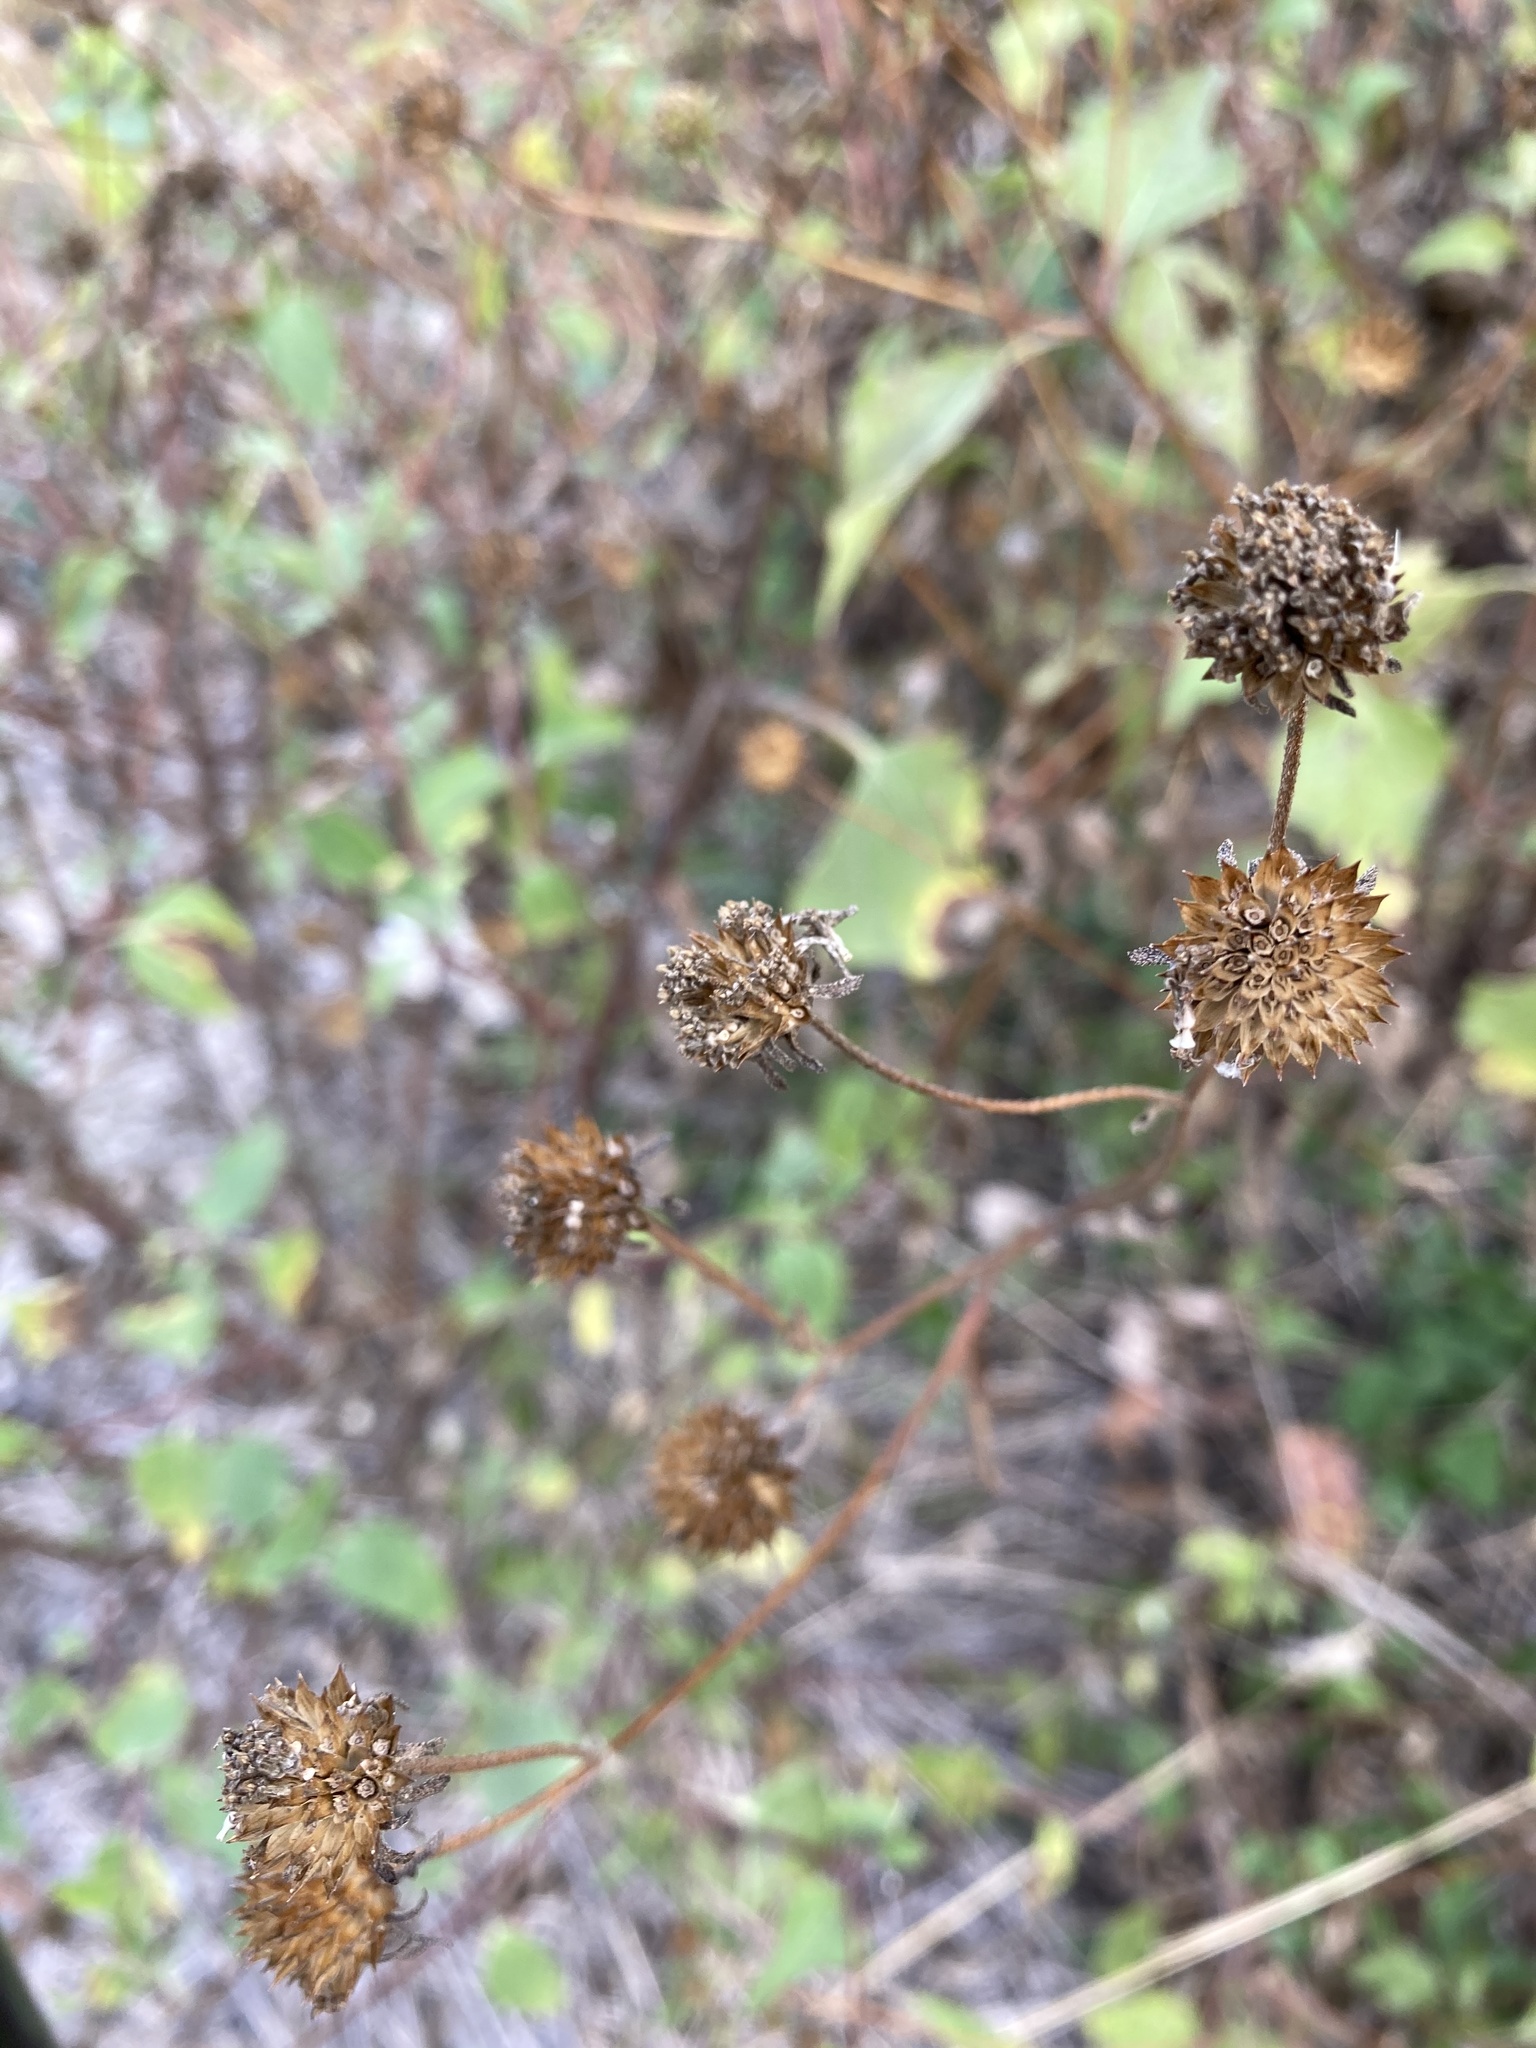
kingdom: Plantae
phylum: Tracheophyta
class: Magnoliopsida
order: Asterales
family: Asteraceae
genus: Viguiera
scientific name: Viguiera dentata
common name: Toothleaf
